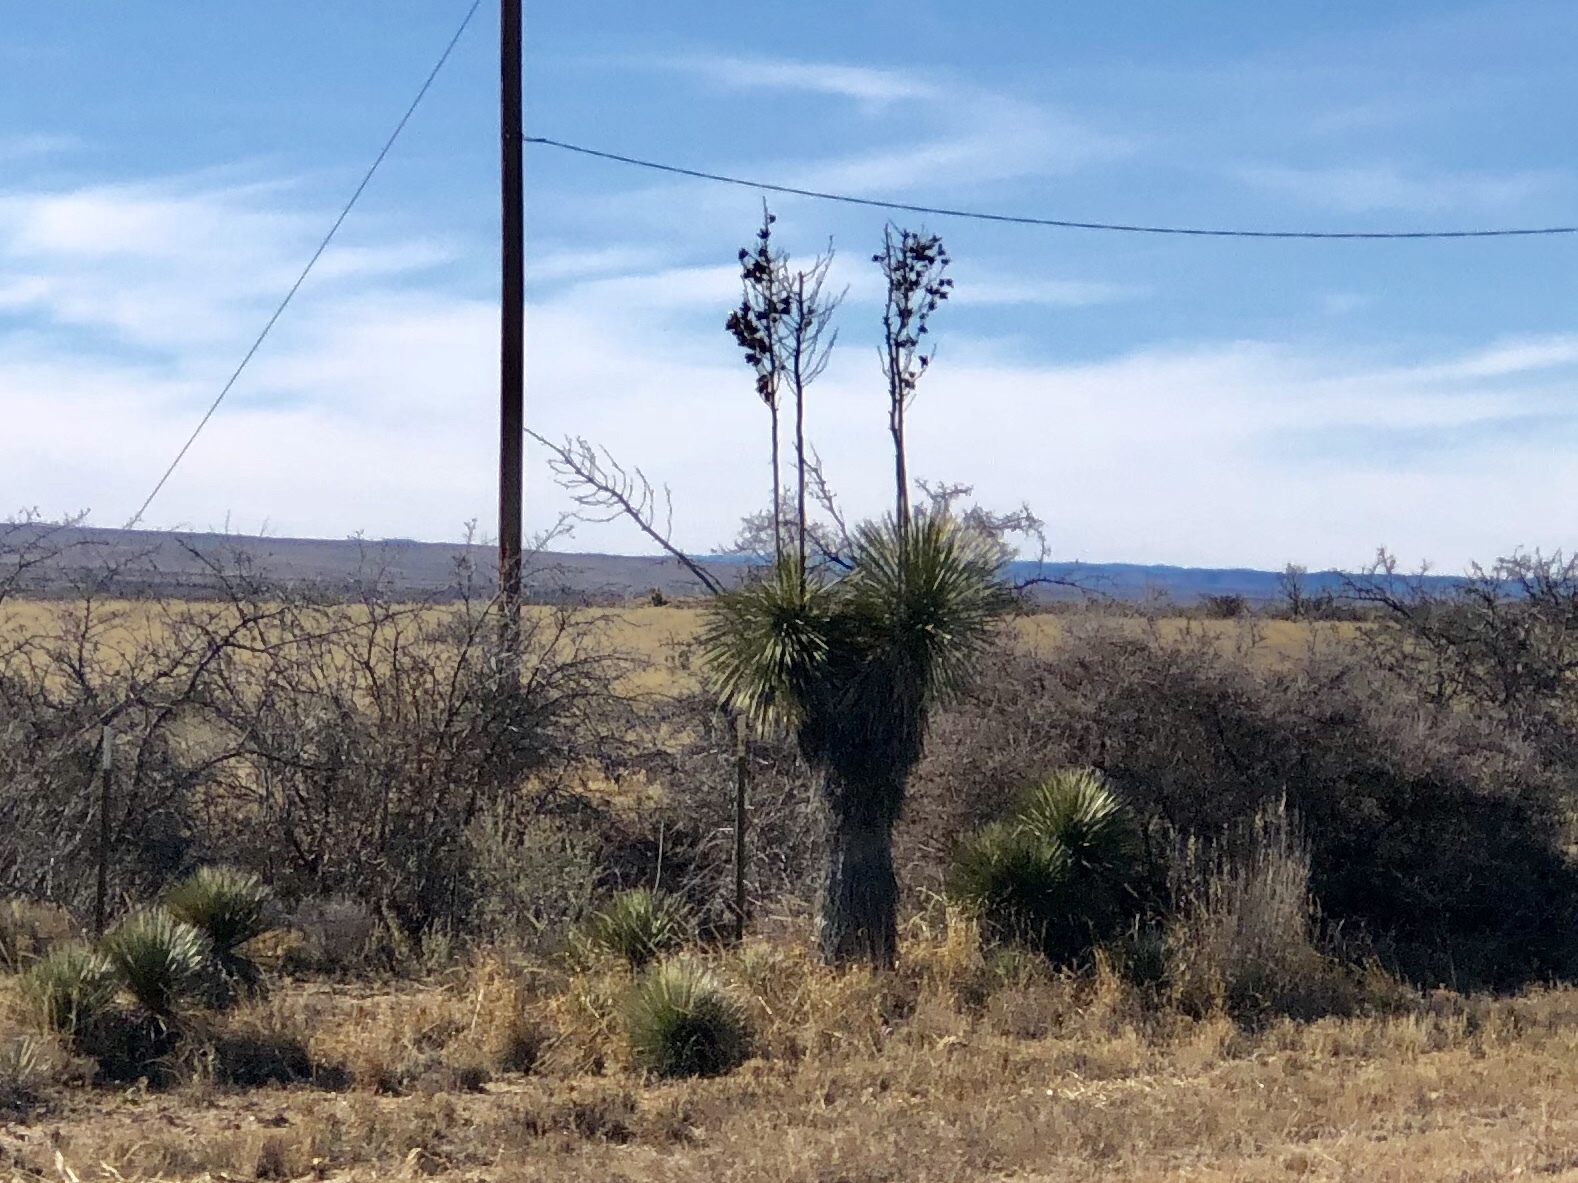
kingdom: Plantae
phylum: Tracheophyta
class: Liliopsida
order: Asparagales
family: Asparagaceae
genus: Yucca
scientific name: Yucca elata
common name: Palmella
